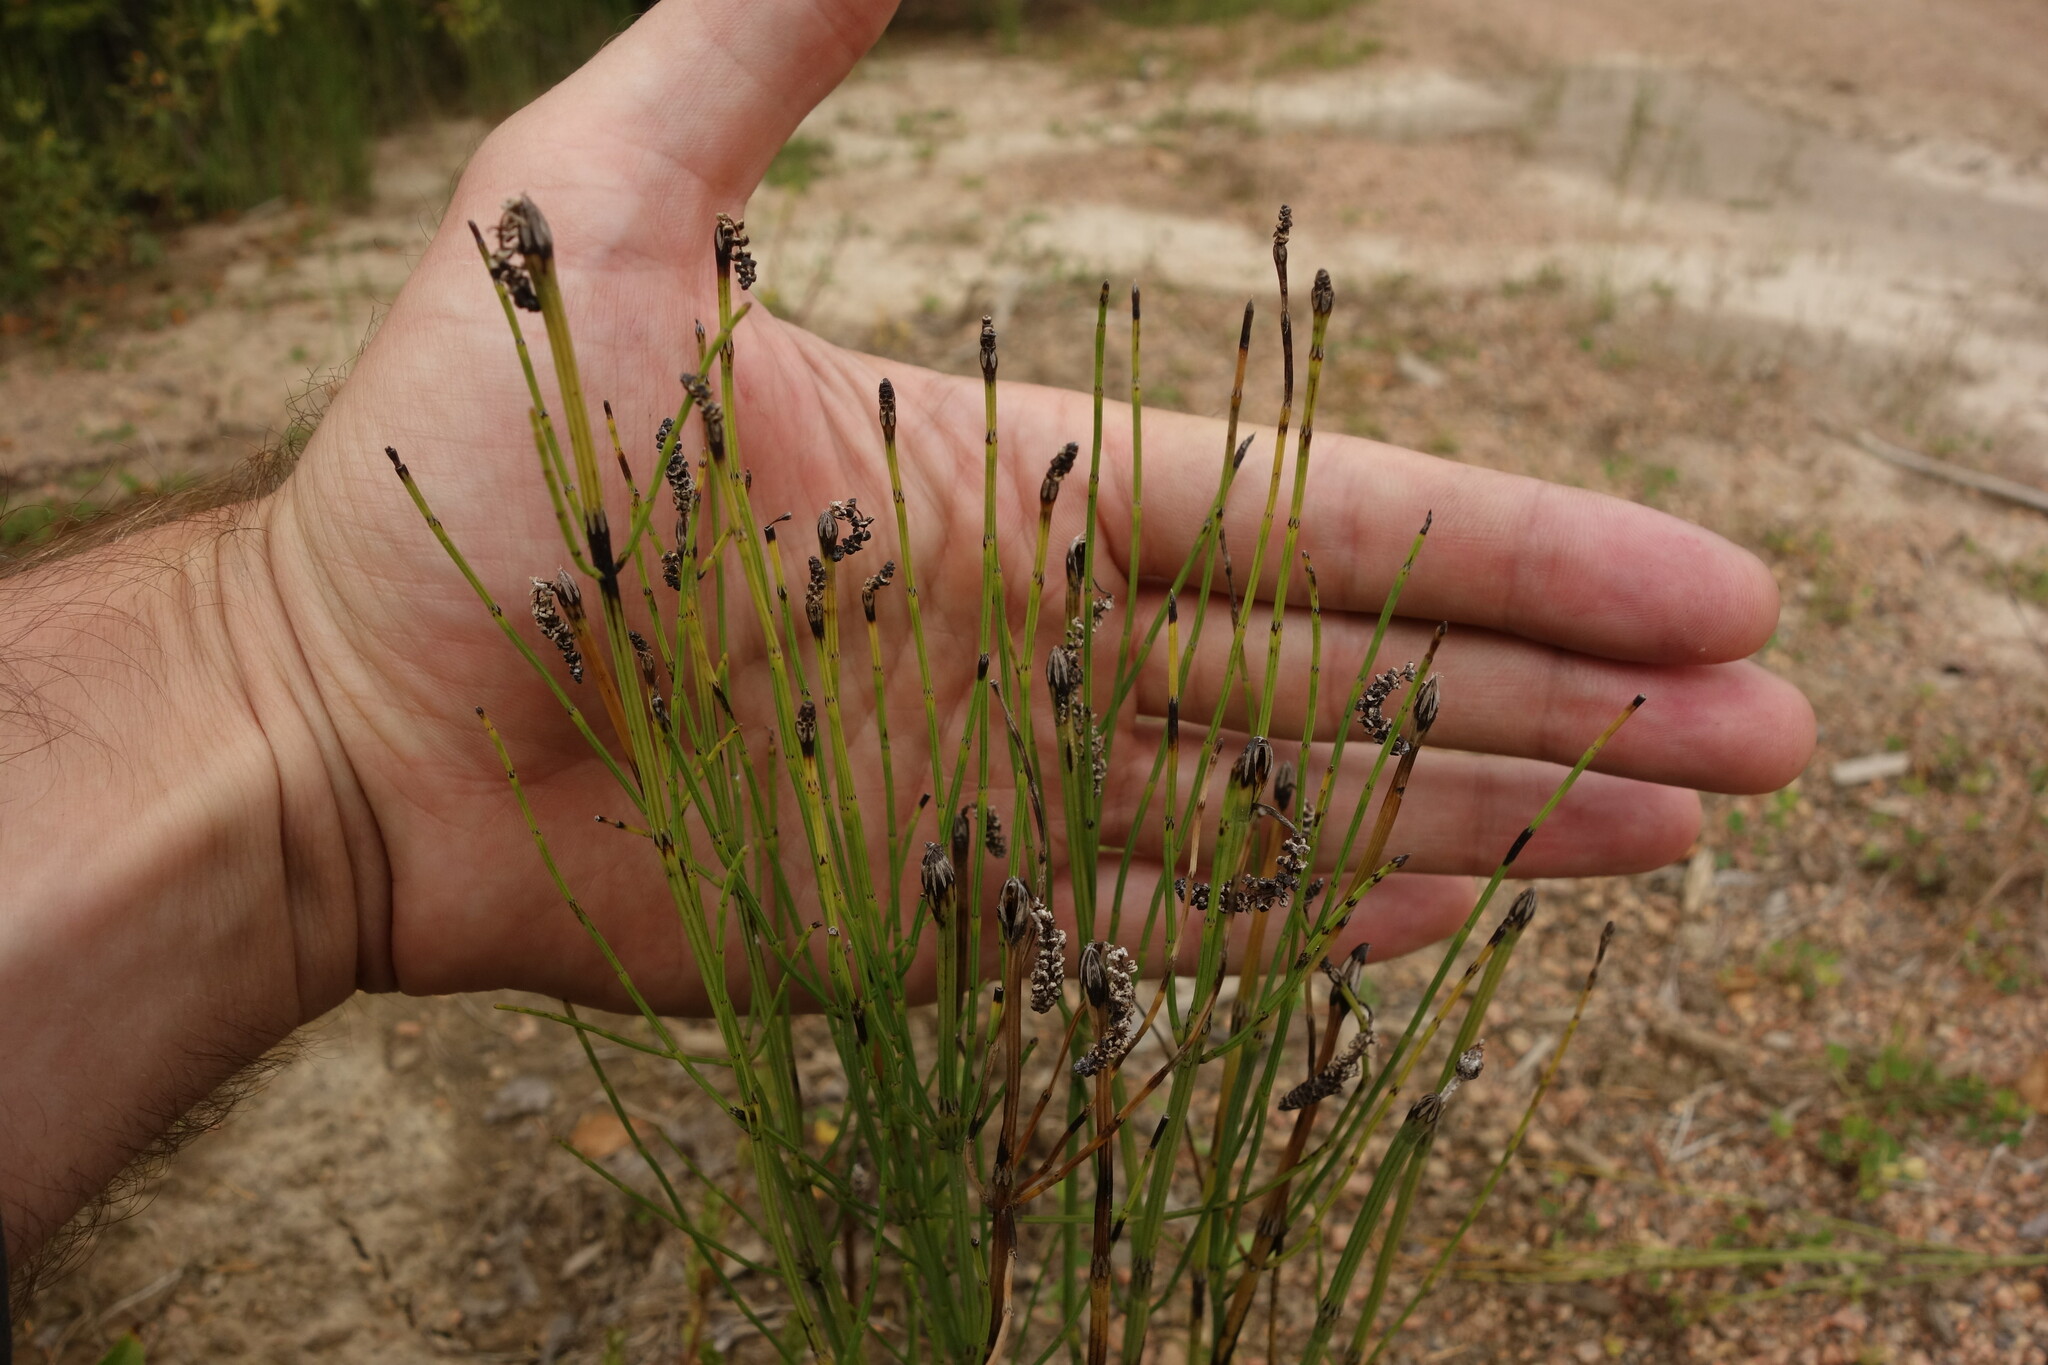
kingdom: Plantae
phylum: Tracheophyta
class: Polypodiopsida
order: Equisetales
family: Equisetaceae
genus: Equisetum
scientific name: Equisetum palustre
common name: Marsh horsetail
